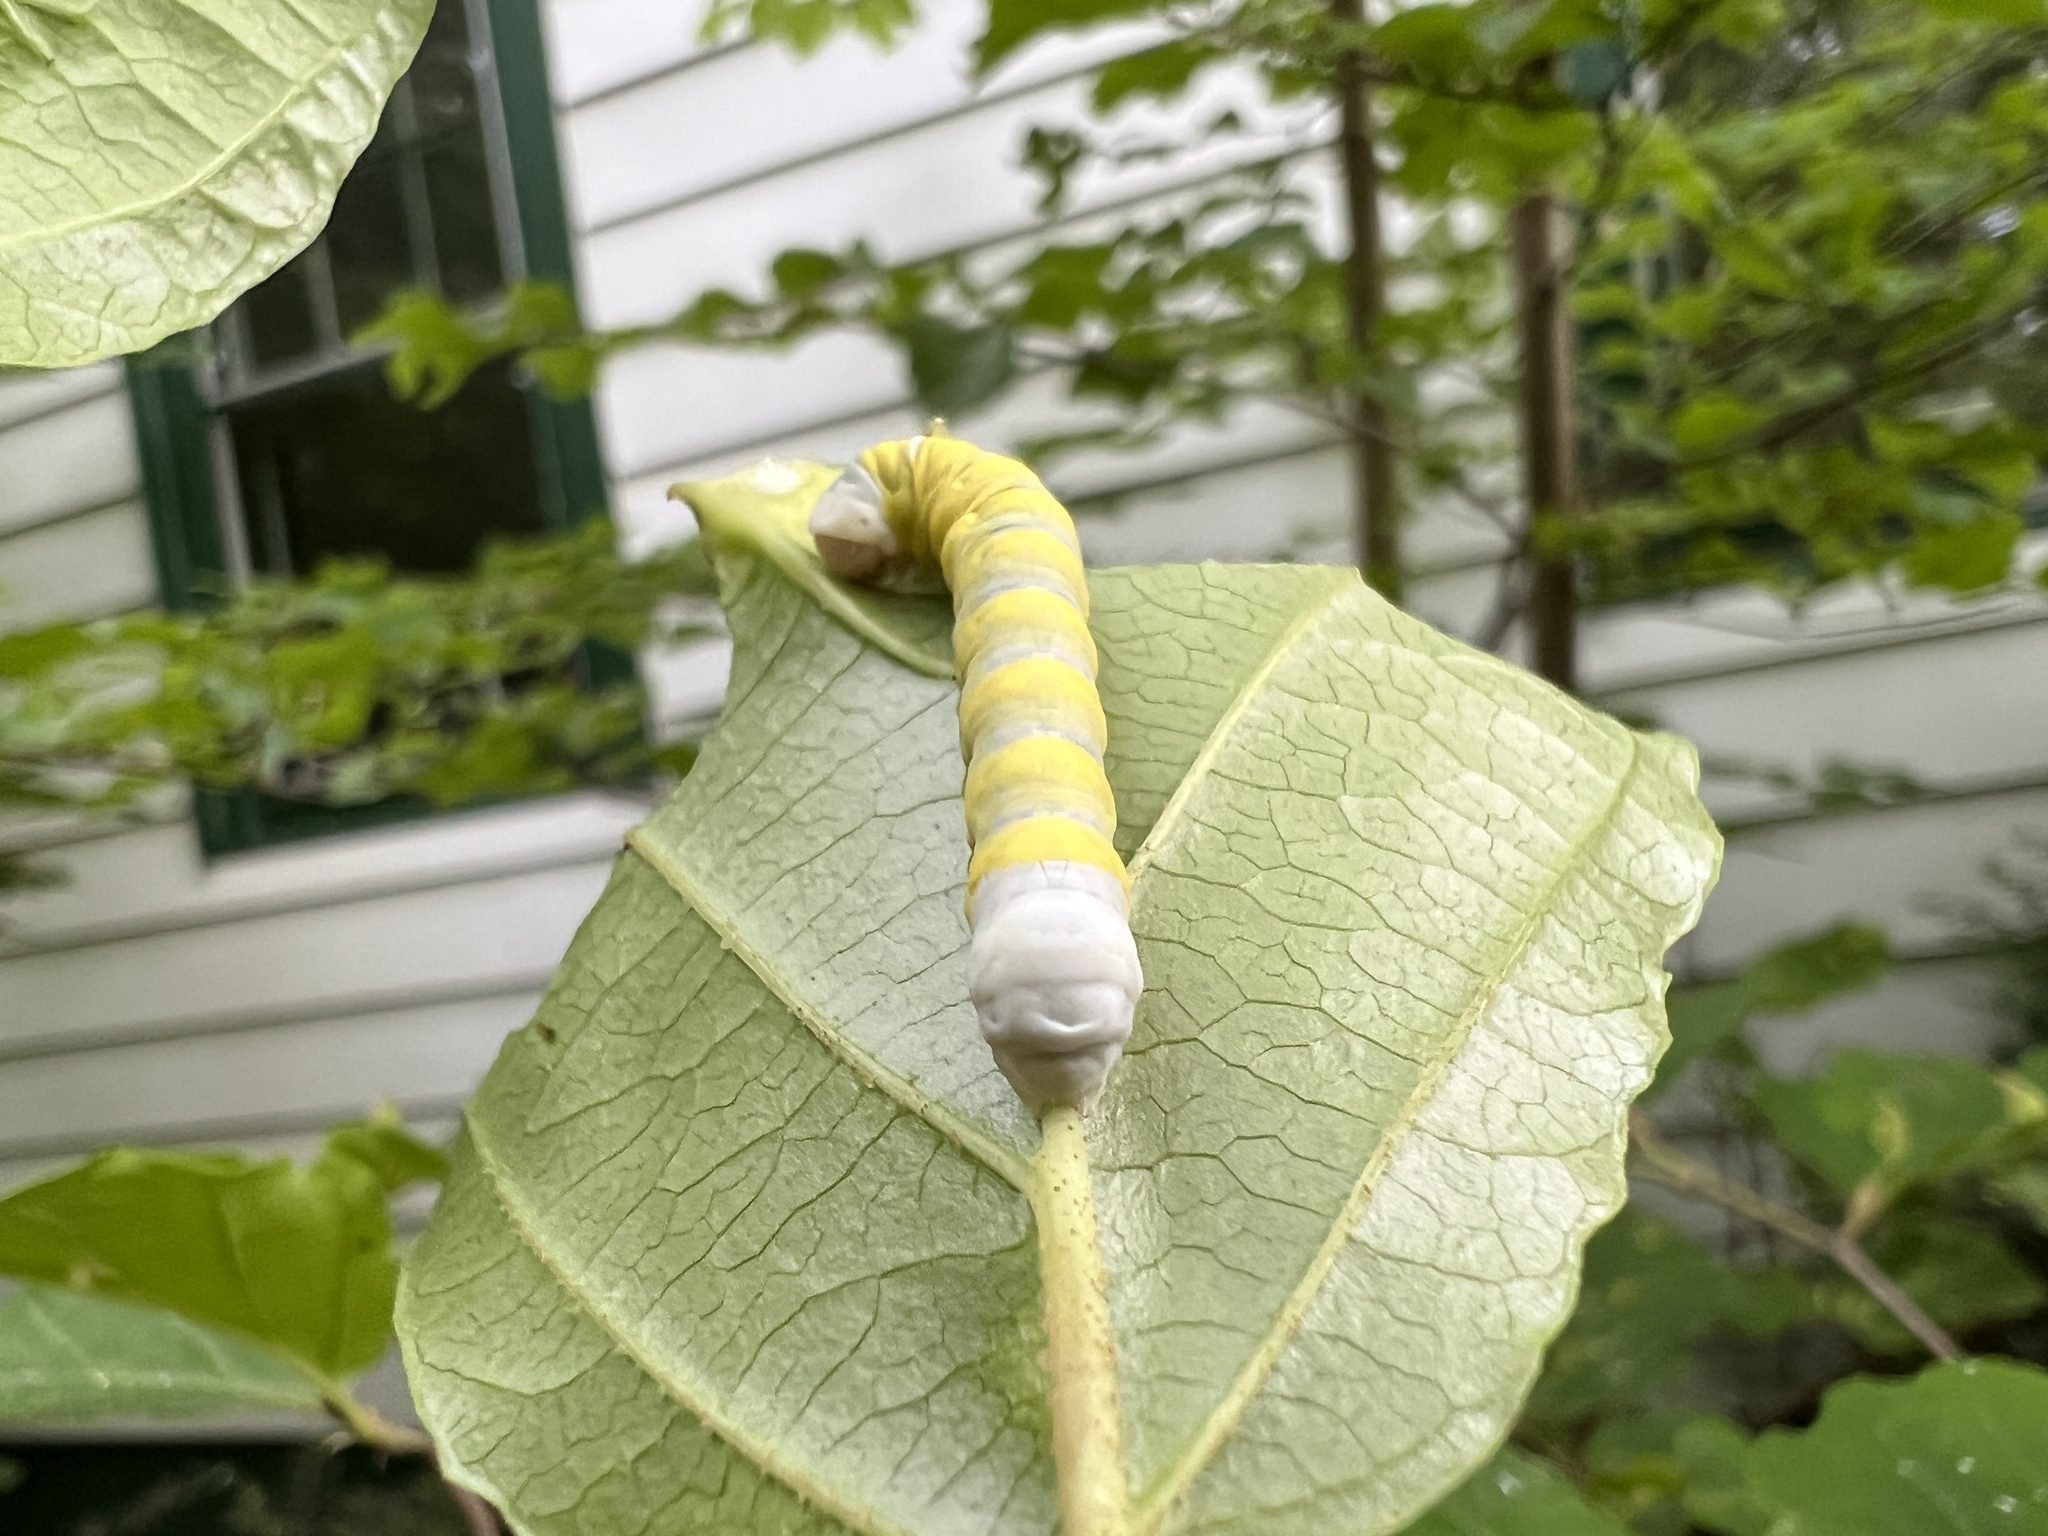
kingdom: Animalia
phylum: Arthropoda
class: Insecta
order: Lepidoptera
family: Noctuidae
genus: Pyreferra
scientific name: Pyreferra hesperidago
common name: Mustard sallow
